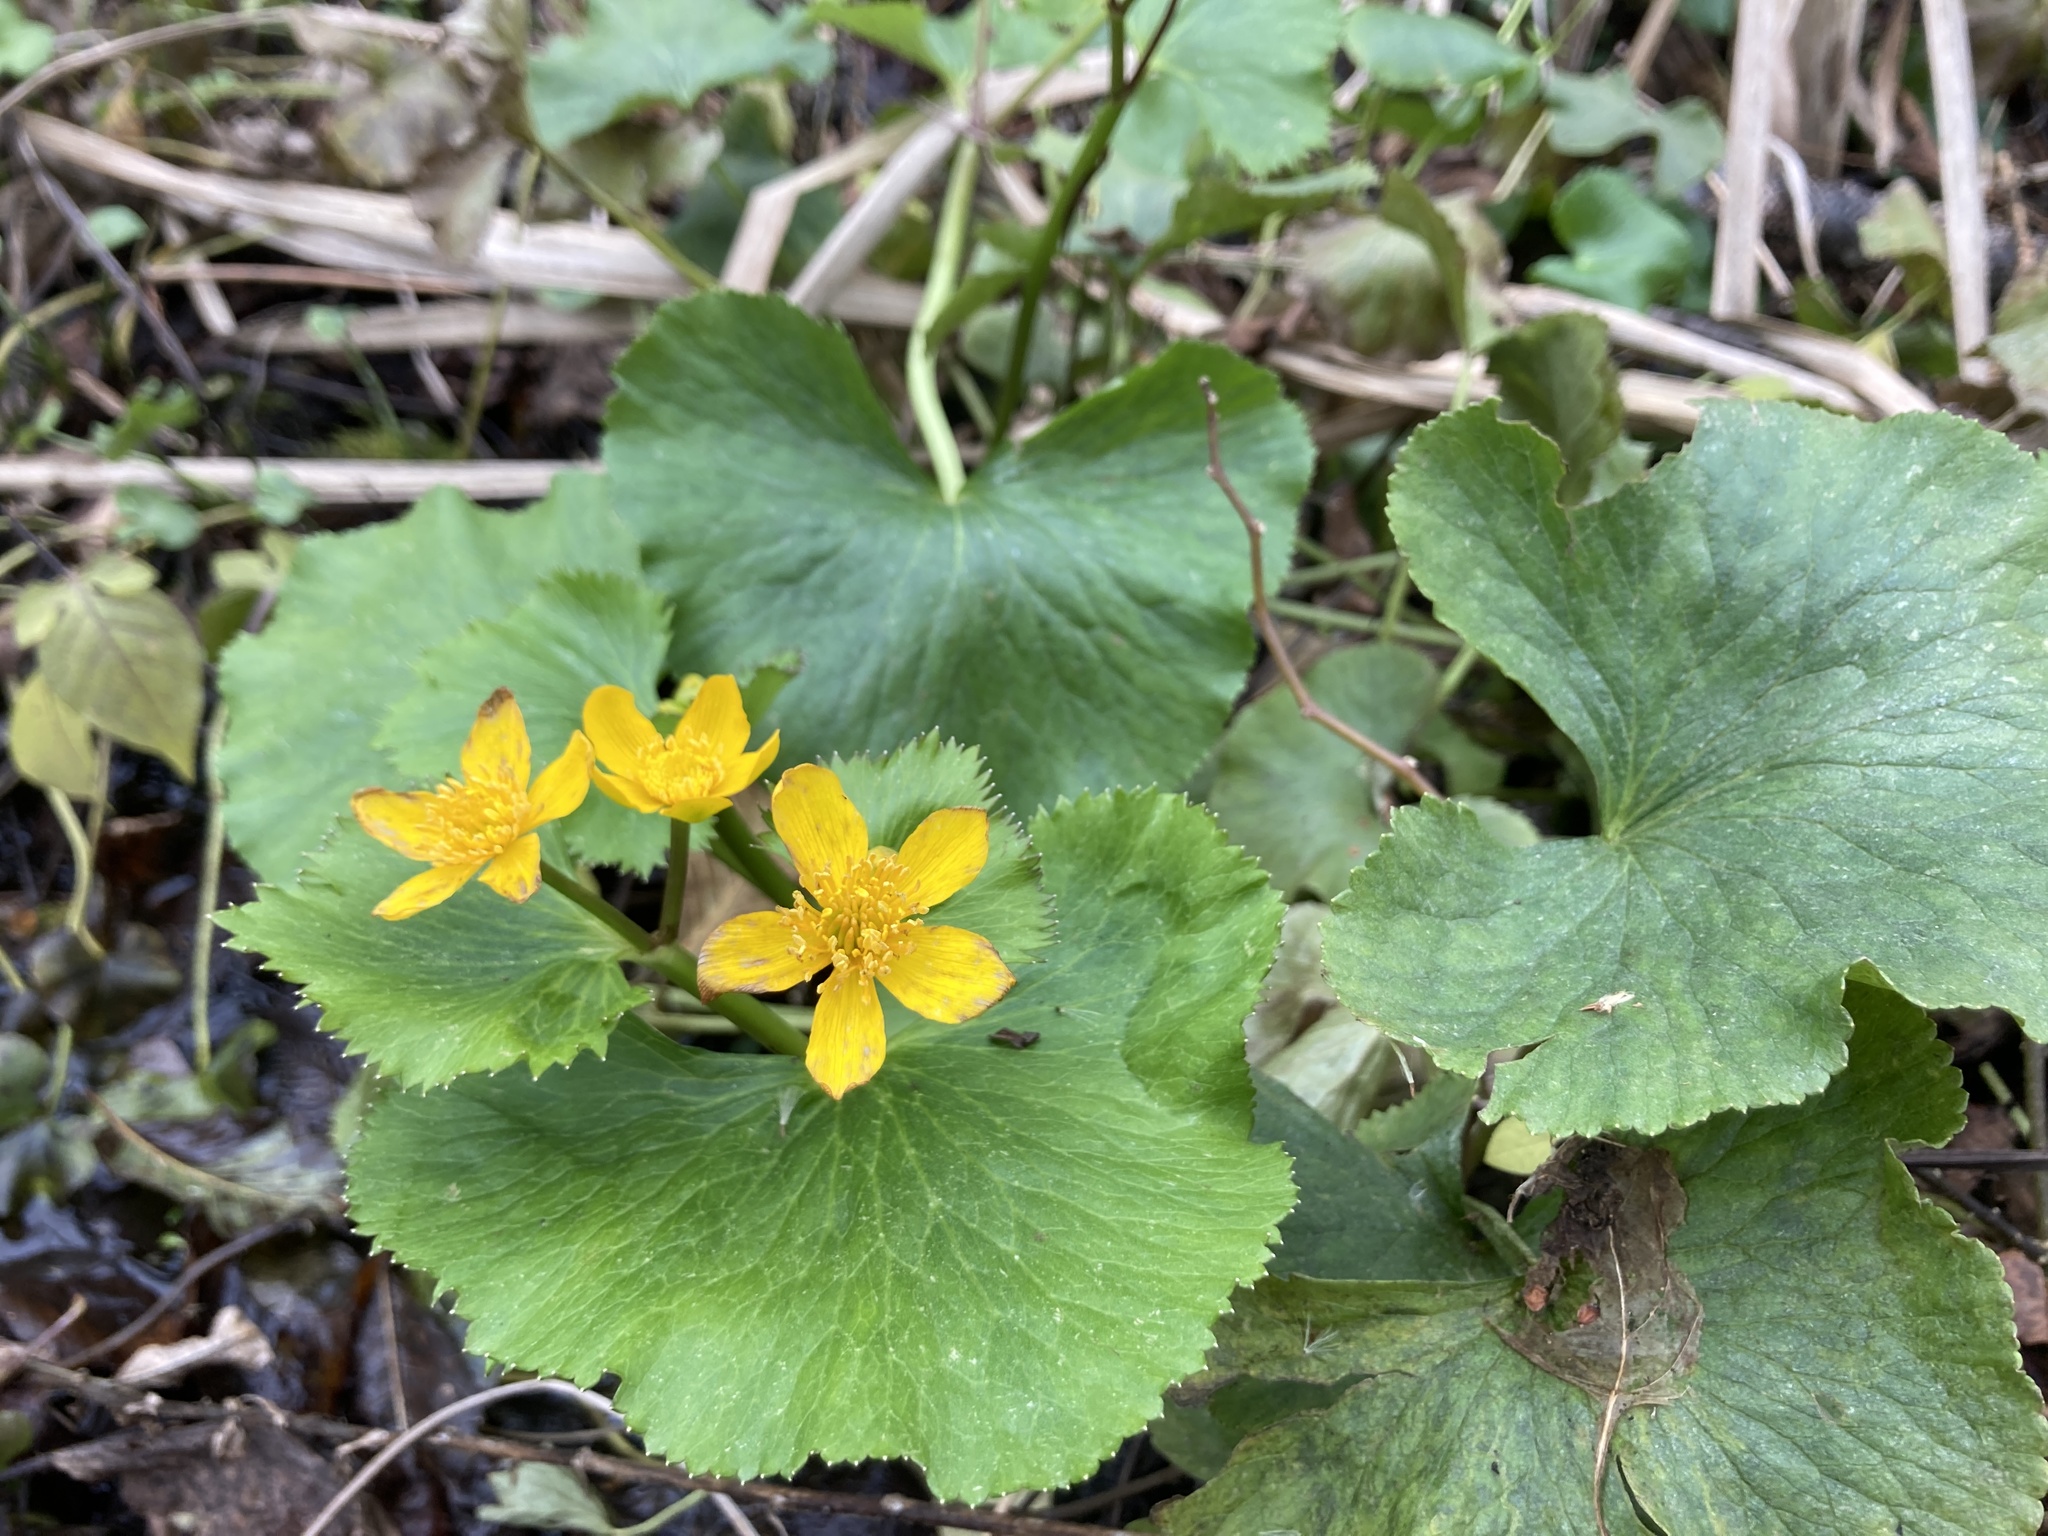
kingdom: Plantae
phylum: Tracheophyta
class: Magnoliopsida
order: Ranunculales
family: Ranunculaceae
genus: Caltha
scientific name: Caltha palustris
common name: Marsh marigold
